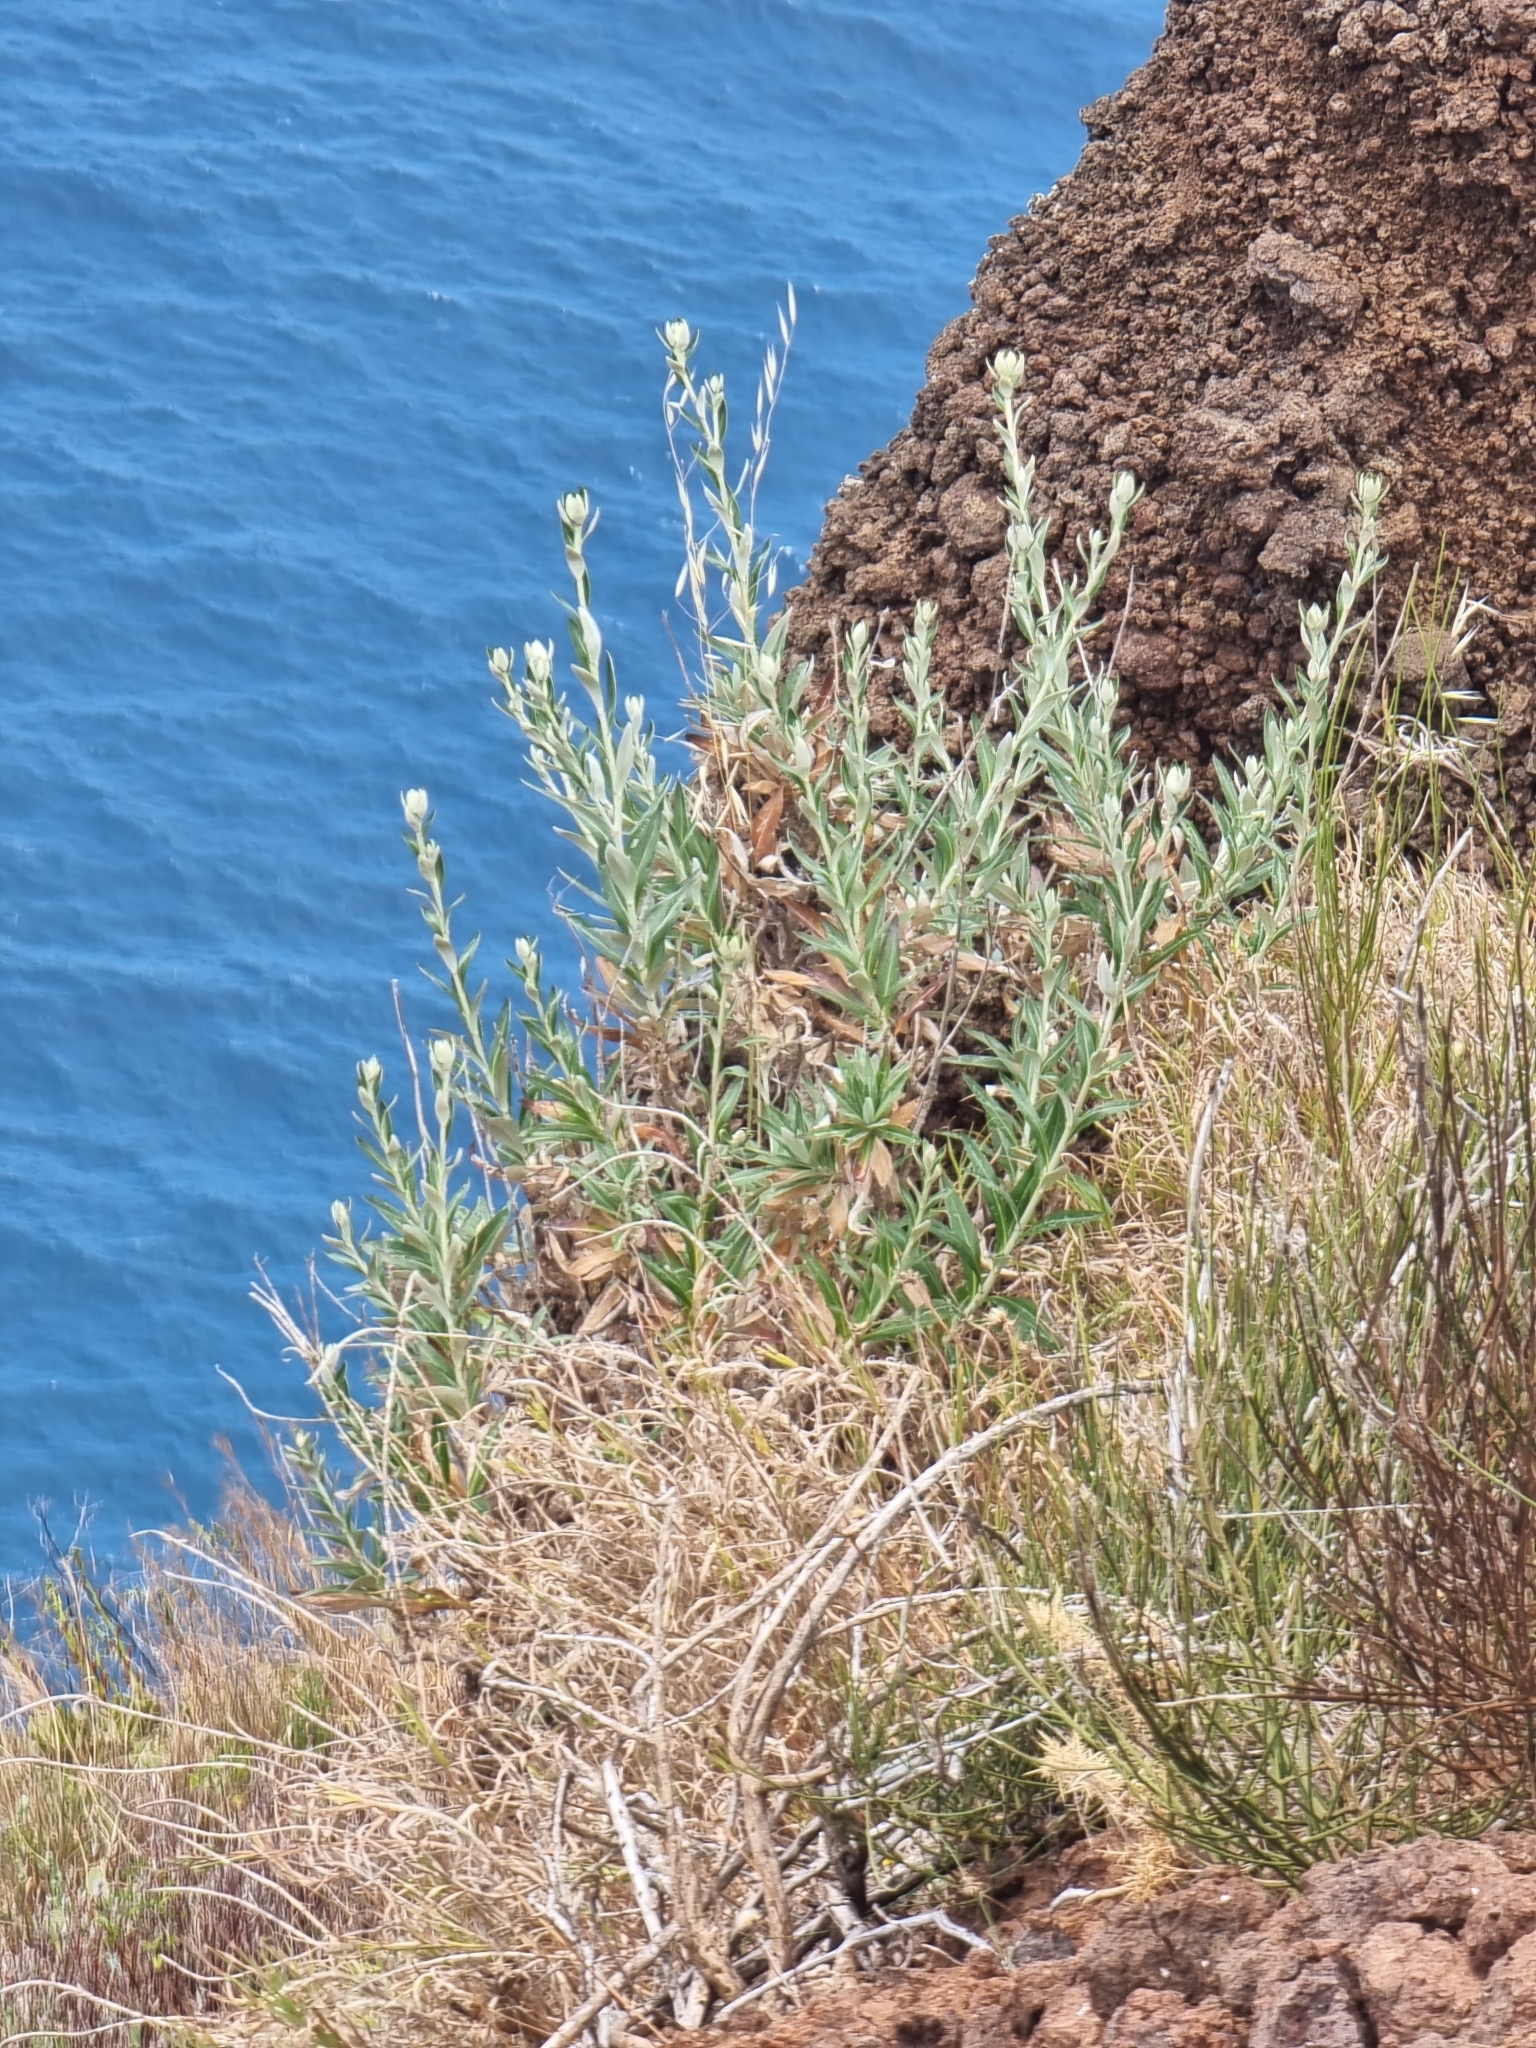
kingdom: Plantae
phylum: Tracheophyta
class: Magnoliopsida
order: Asterales
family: Asteraceae
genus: Carlina
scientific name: Carlina salicifolia
